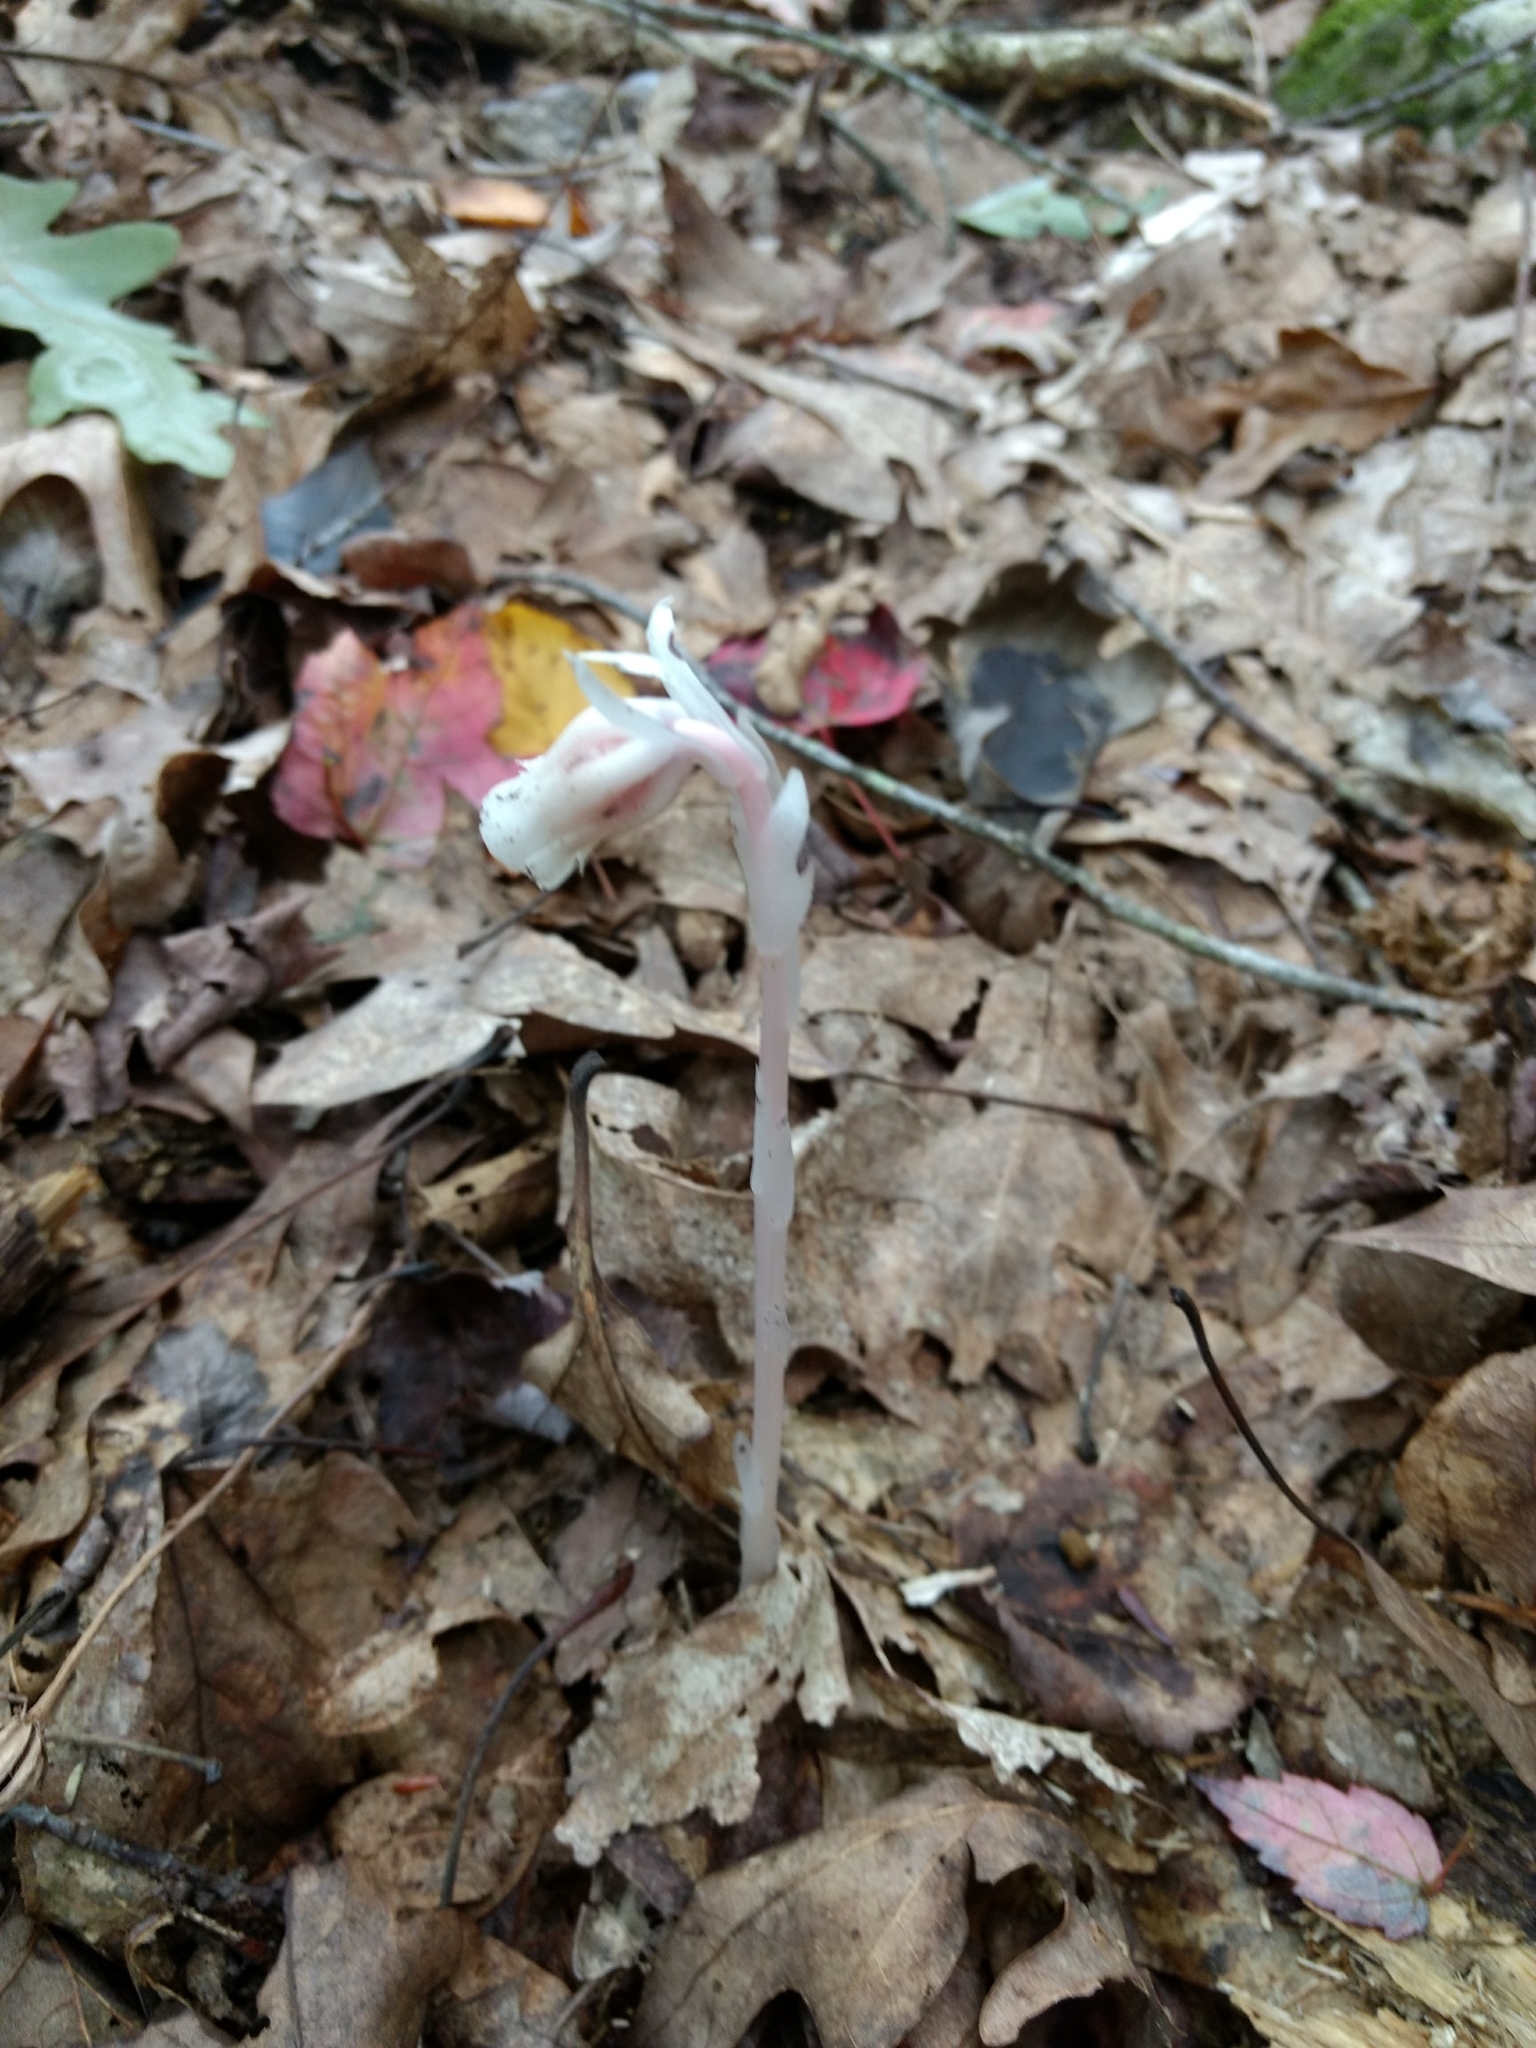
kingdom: Plantae
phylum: Tracheophyta
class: Magnoliopsida
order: Ericales
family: Ericaceae
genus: Monotropa
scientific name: Monotropa uniflora
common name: Convulsion root
